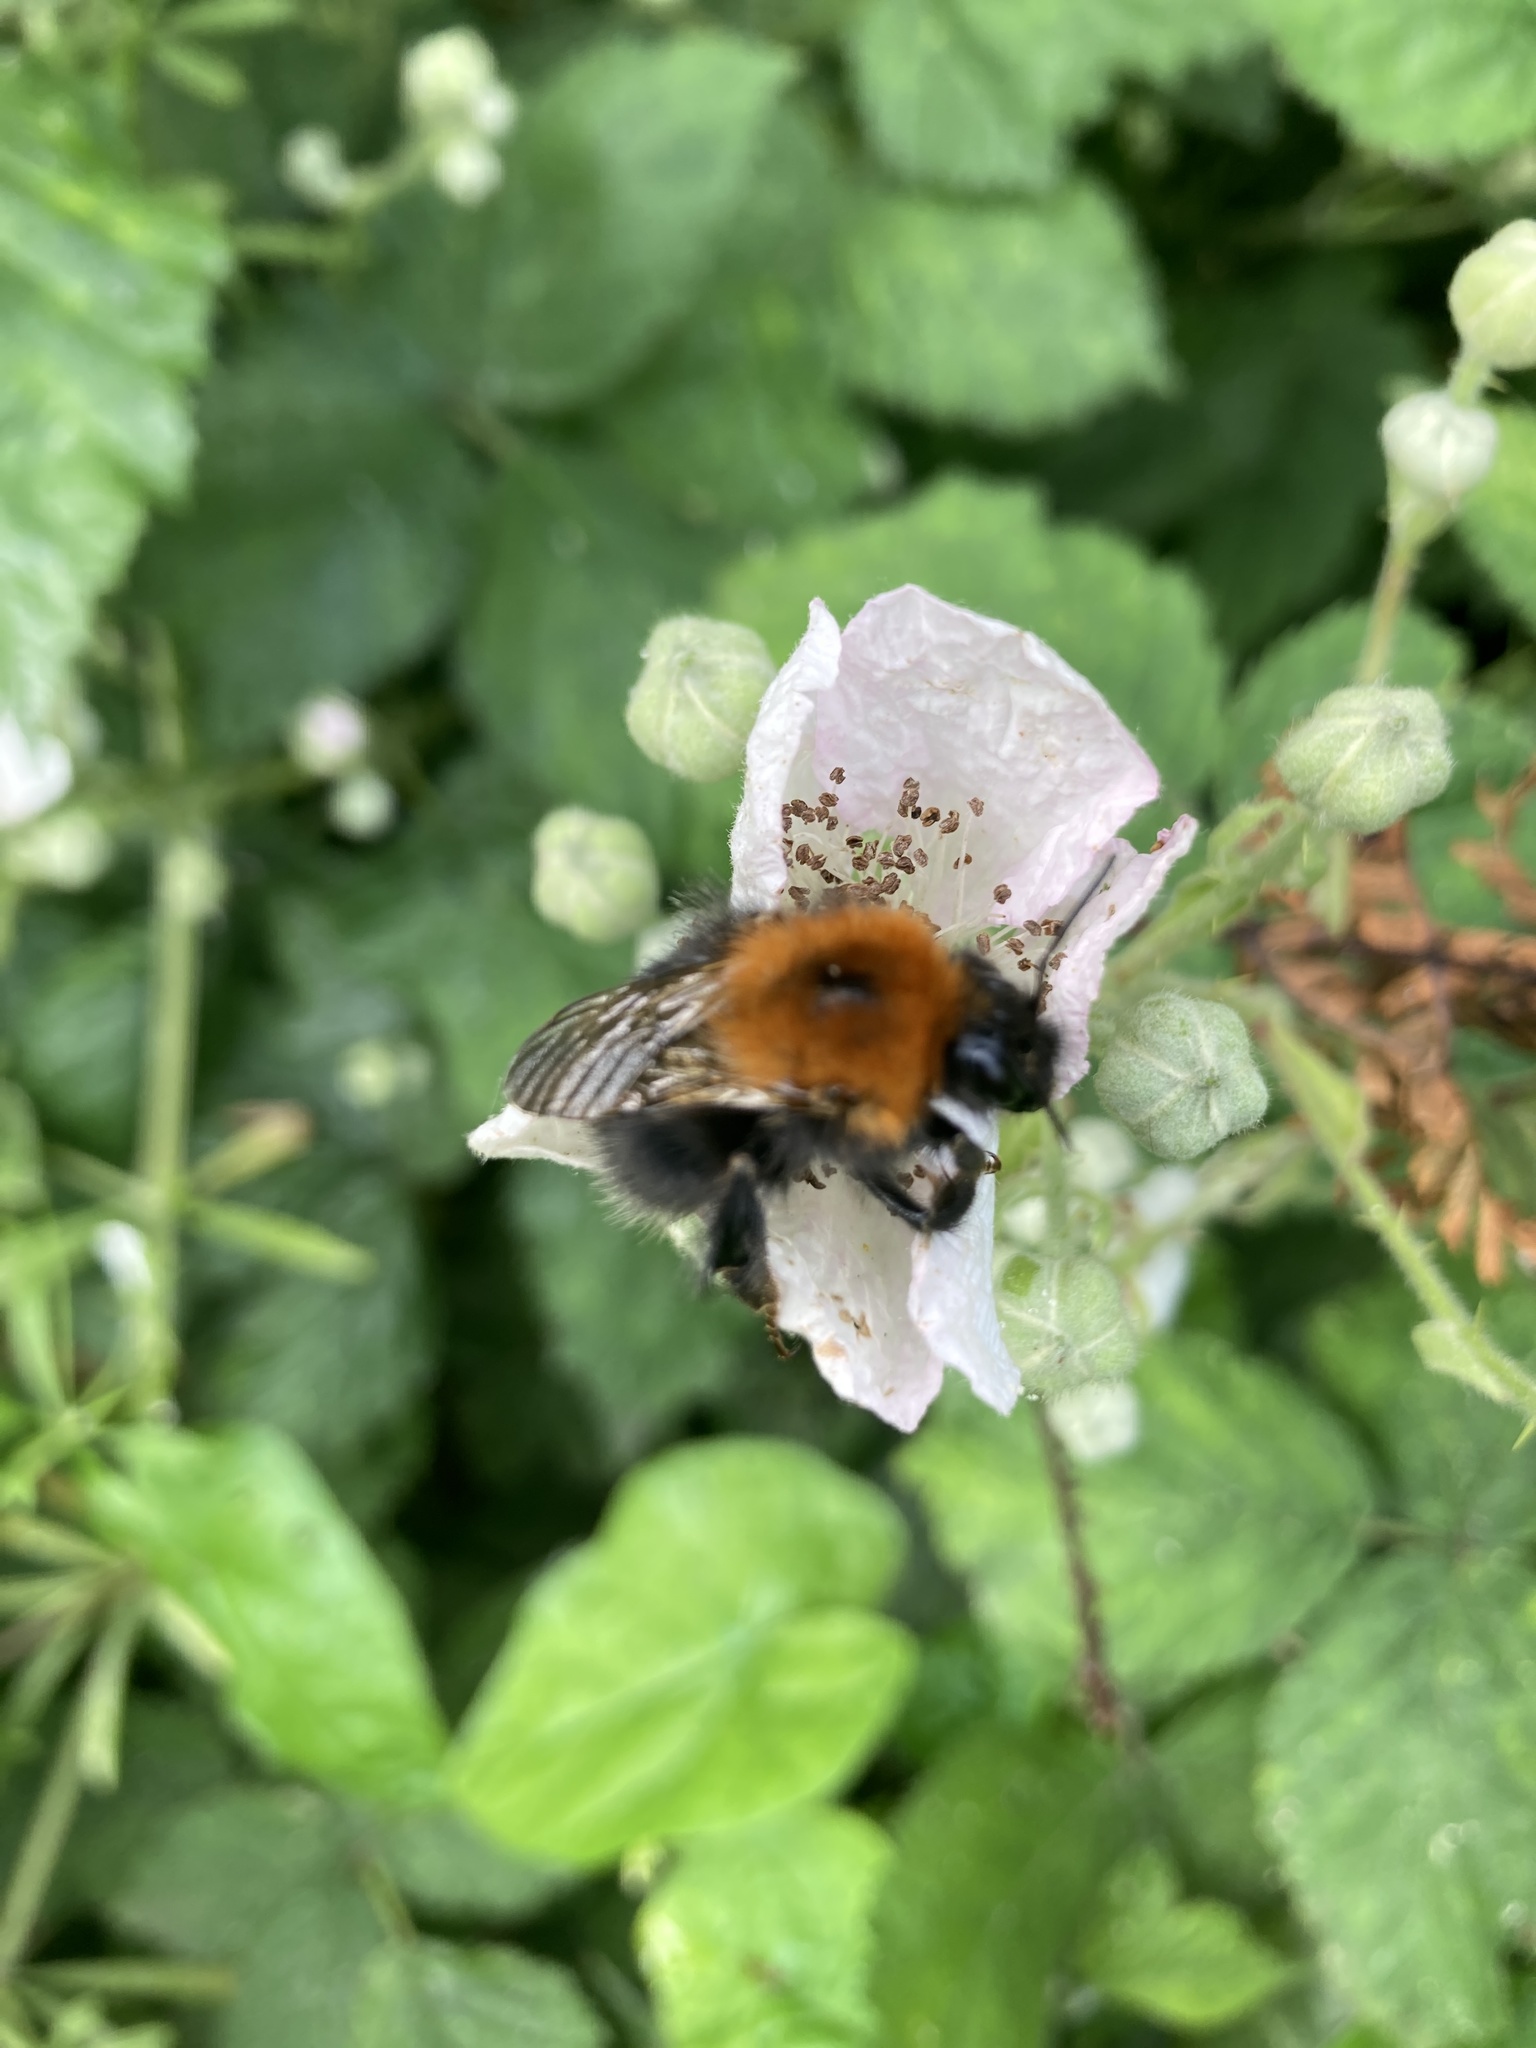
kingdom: Animalia
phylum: Arthropoda
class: Insecta
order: Hymenoptera
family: Apidae
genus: Bombus
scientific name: Bombus hypnorum
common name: New garden bumblebee
